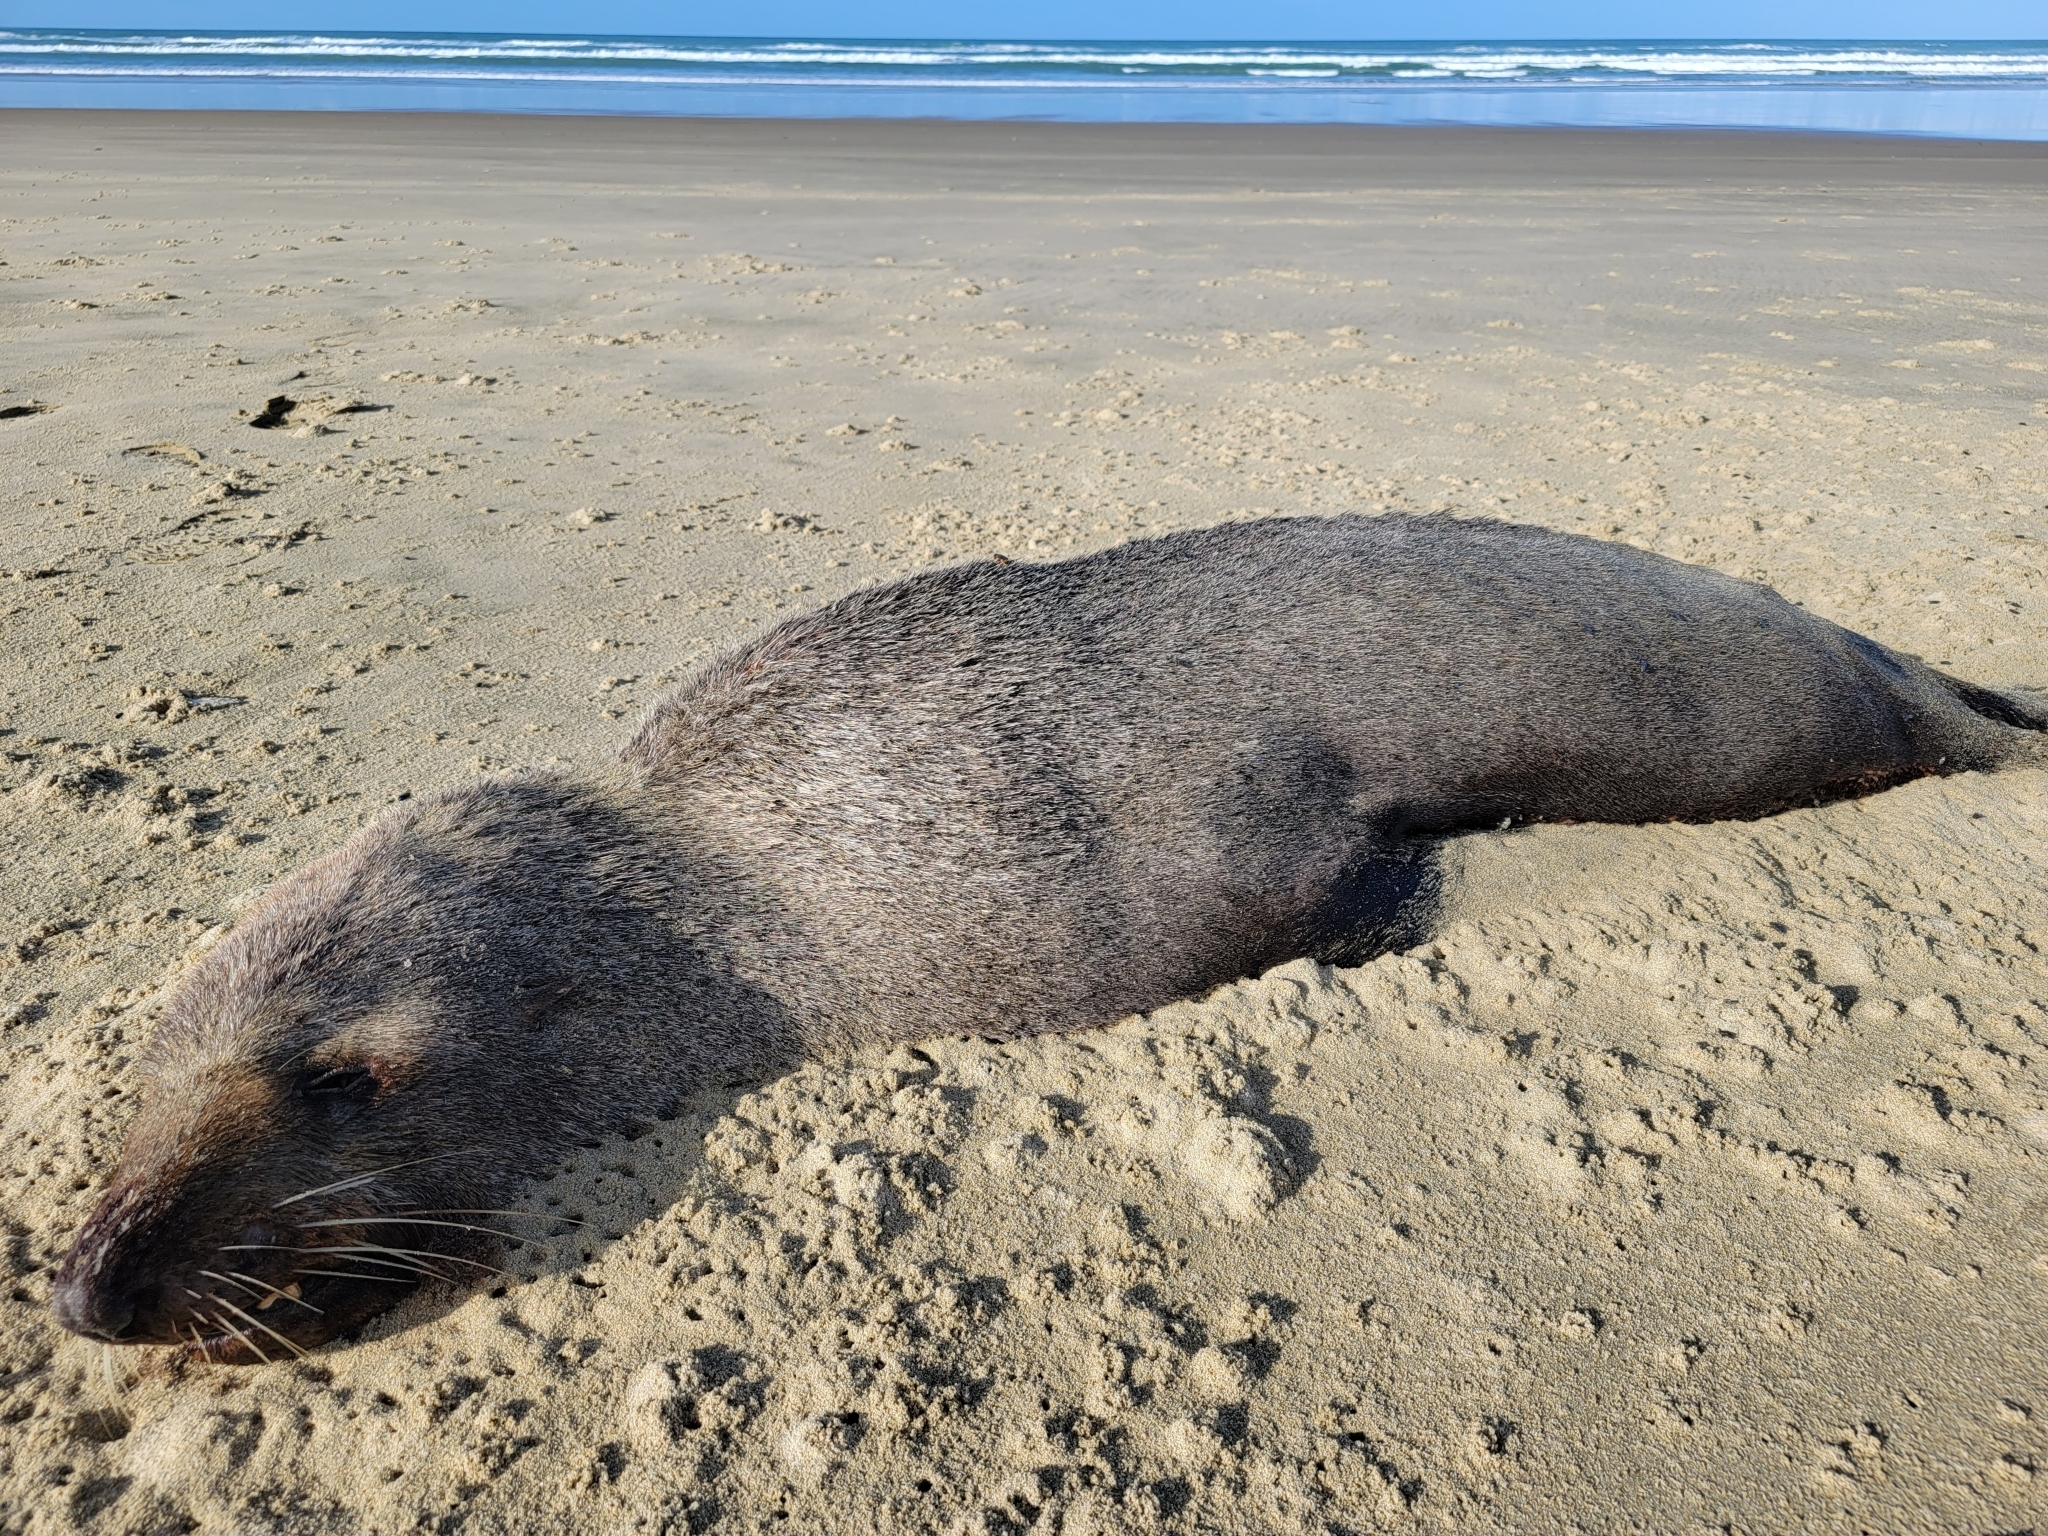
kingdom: Animalia
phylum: Chordata
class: Mammalia
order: Carnivora
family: Otariidae
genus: Arctocephalus
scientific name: Arctocephalus forsteri
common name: New zealand fur seal
